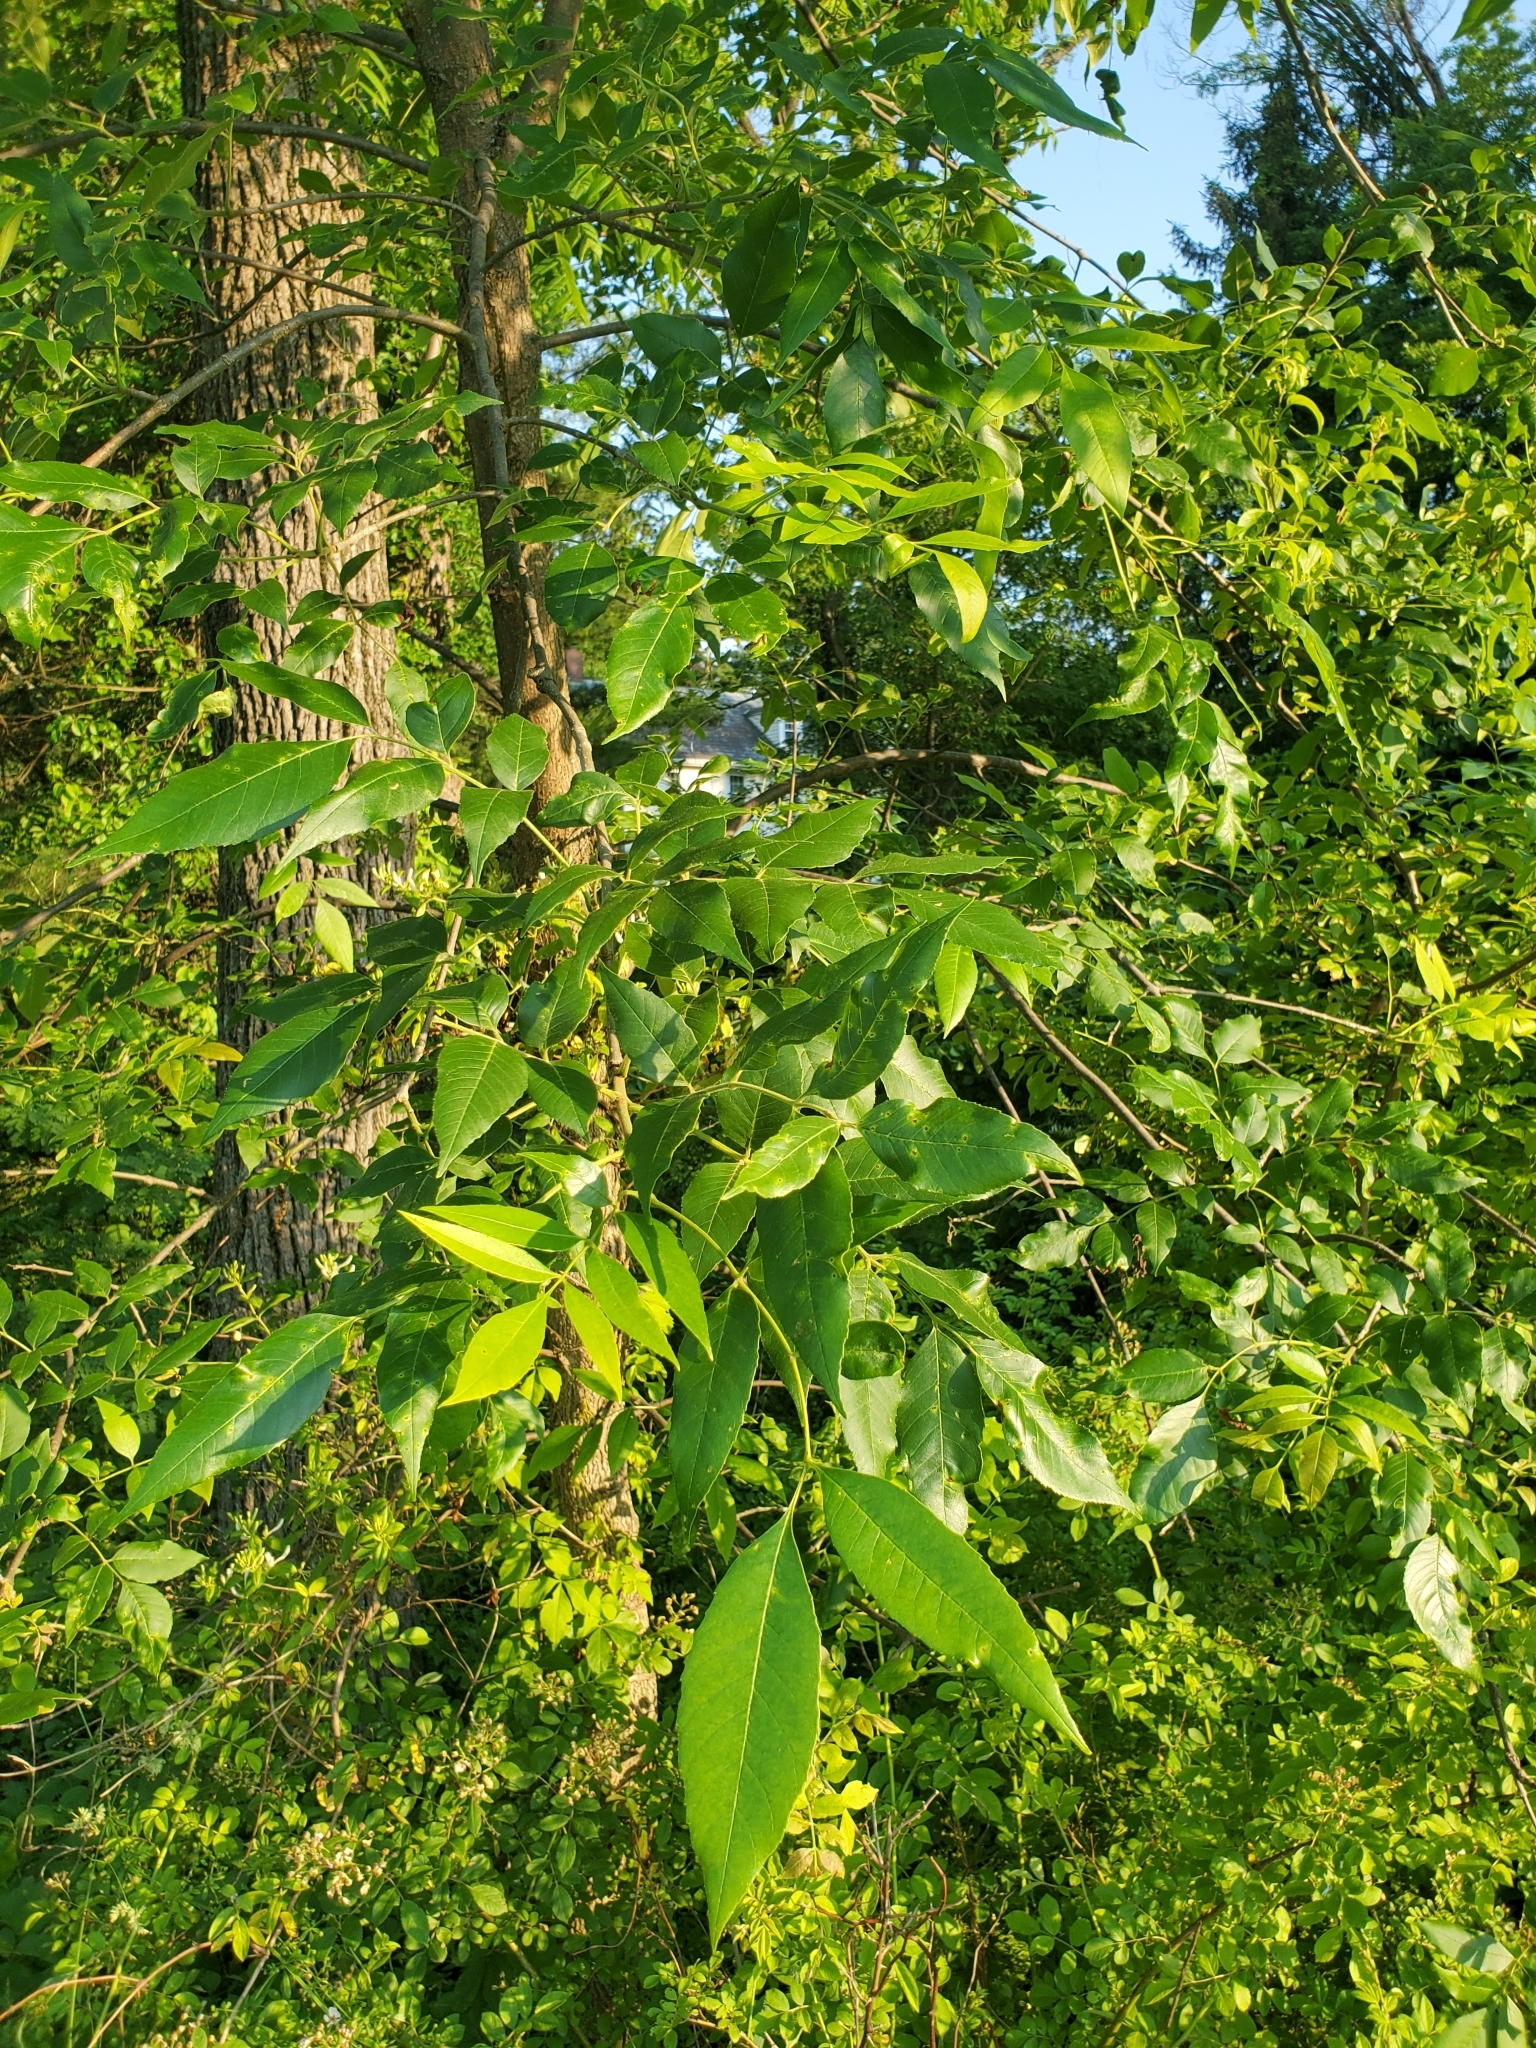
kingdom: Plantae
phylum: Tracheophyta
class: Magnoliopsida
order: Lamiales
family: Oleaceae
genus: Fraxinus
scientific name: Fraxinus pennsylvanica
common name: Green ash
